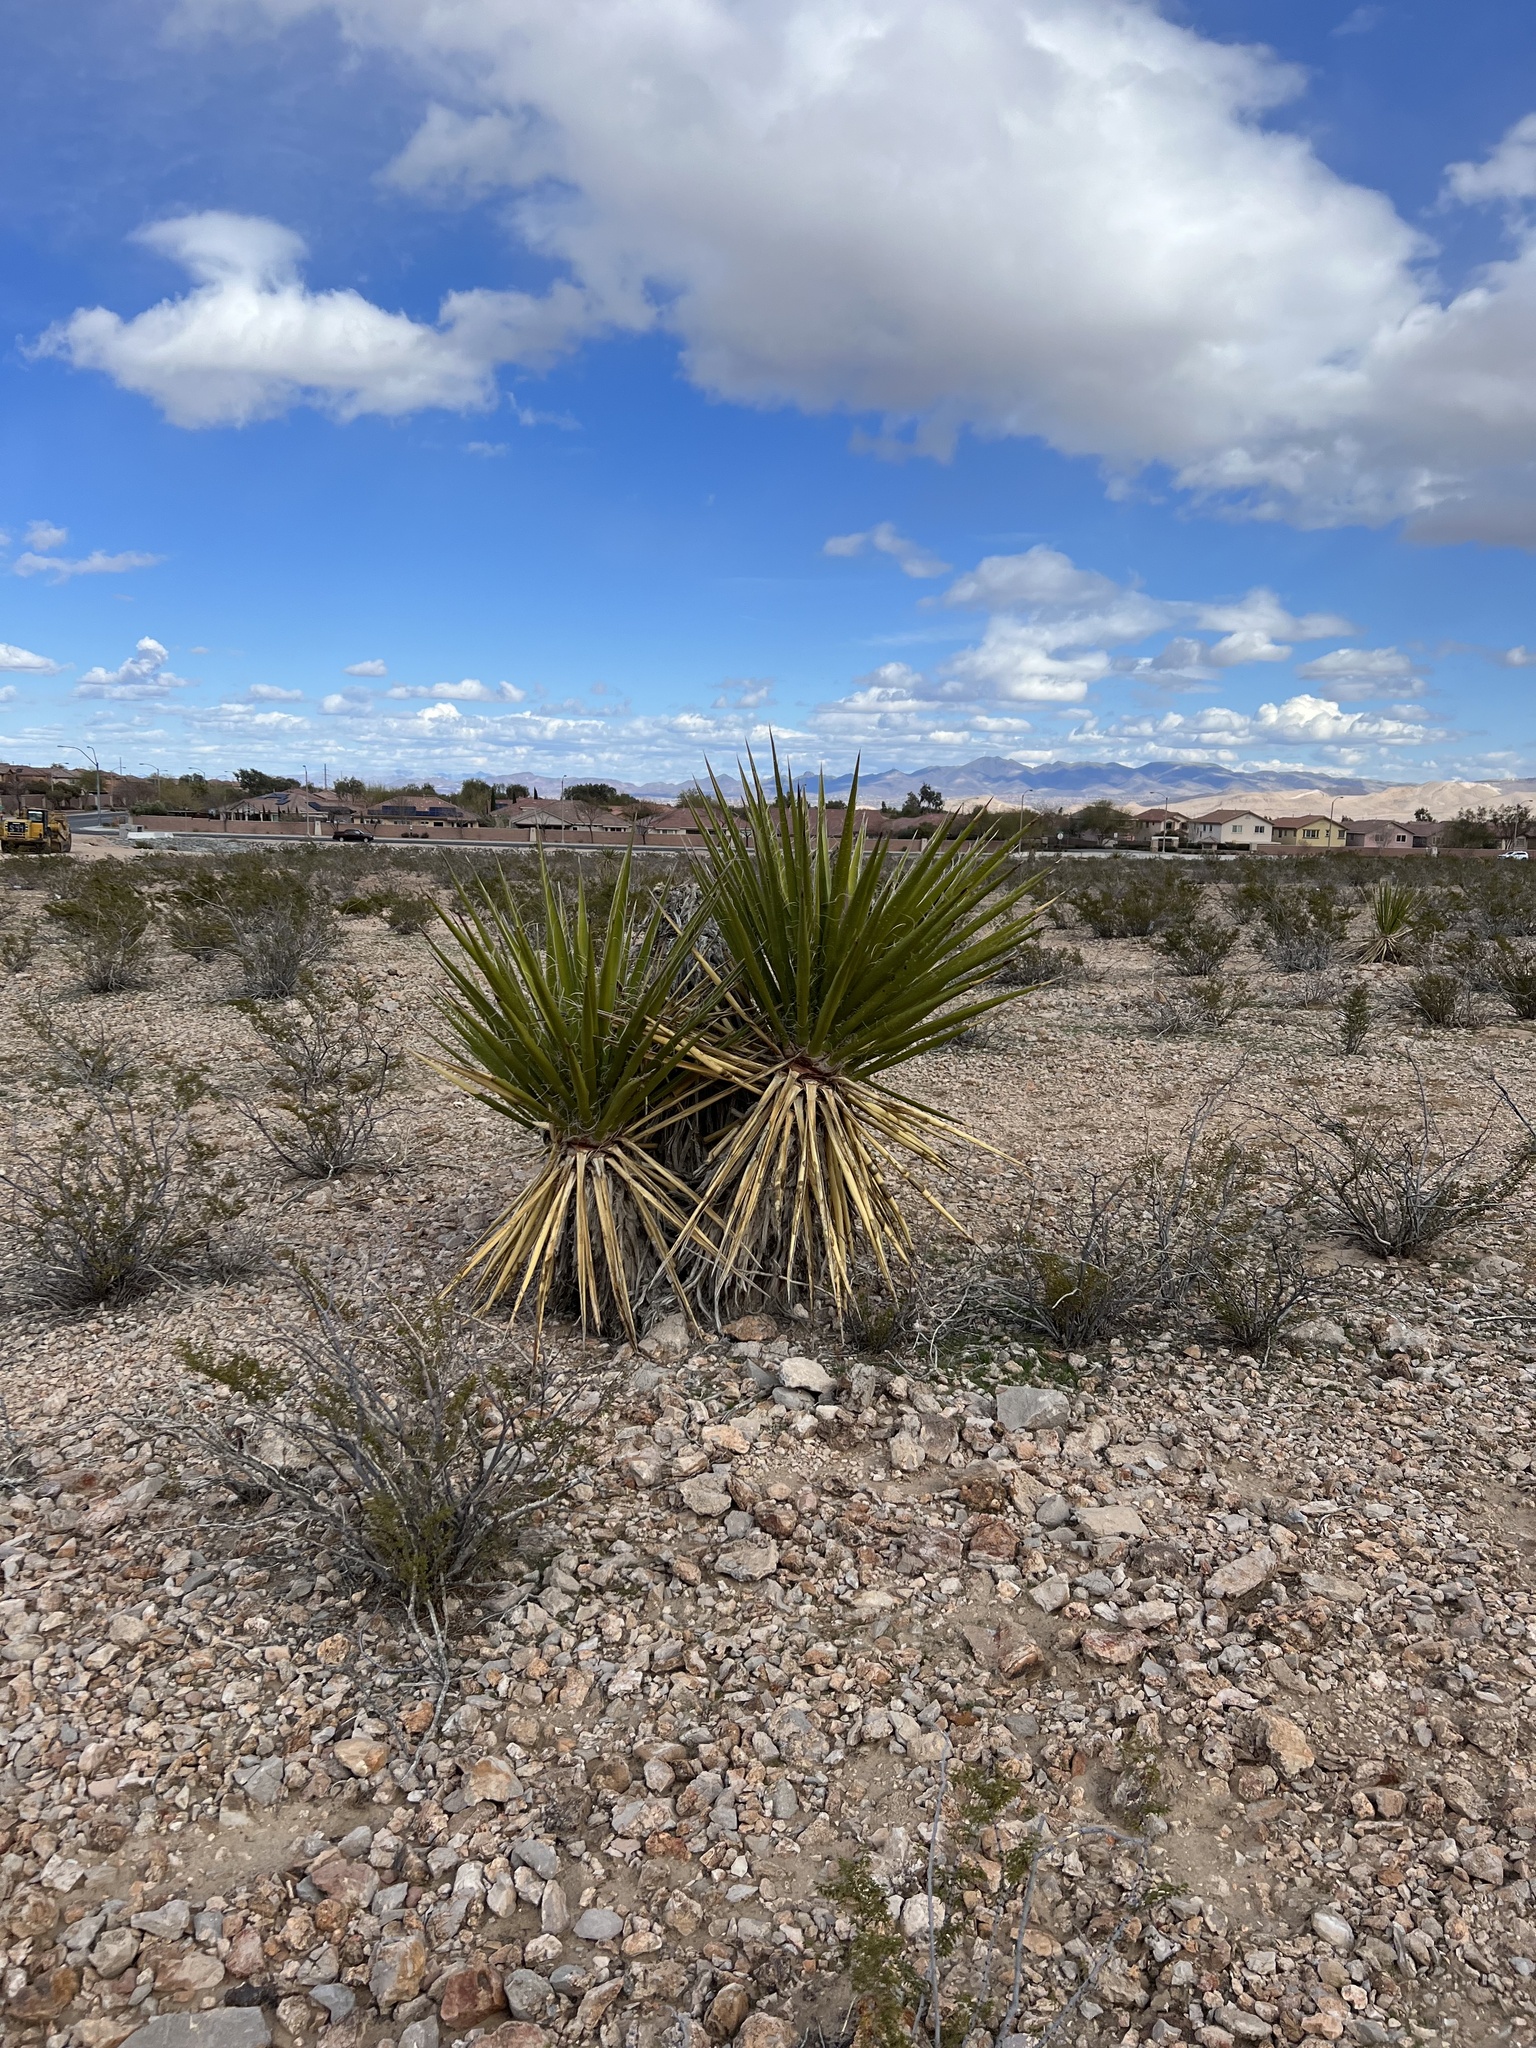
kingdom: Plantae
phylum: Tracheophyta
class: Liliopsida
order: Asparagales
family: Asparagaceae
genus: Yucca
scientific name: Yucca schidigera
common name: Mojave yucca
